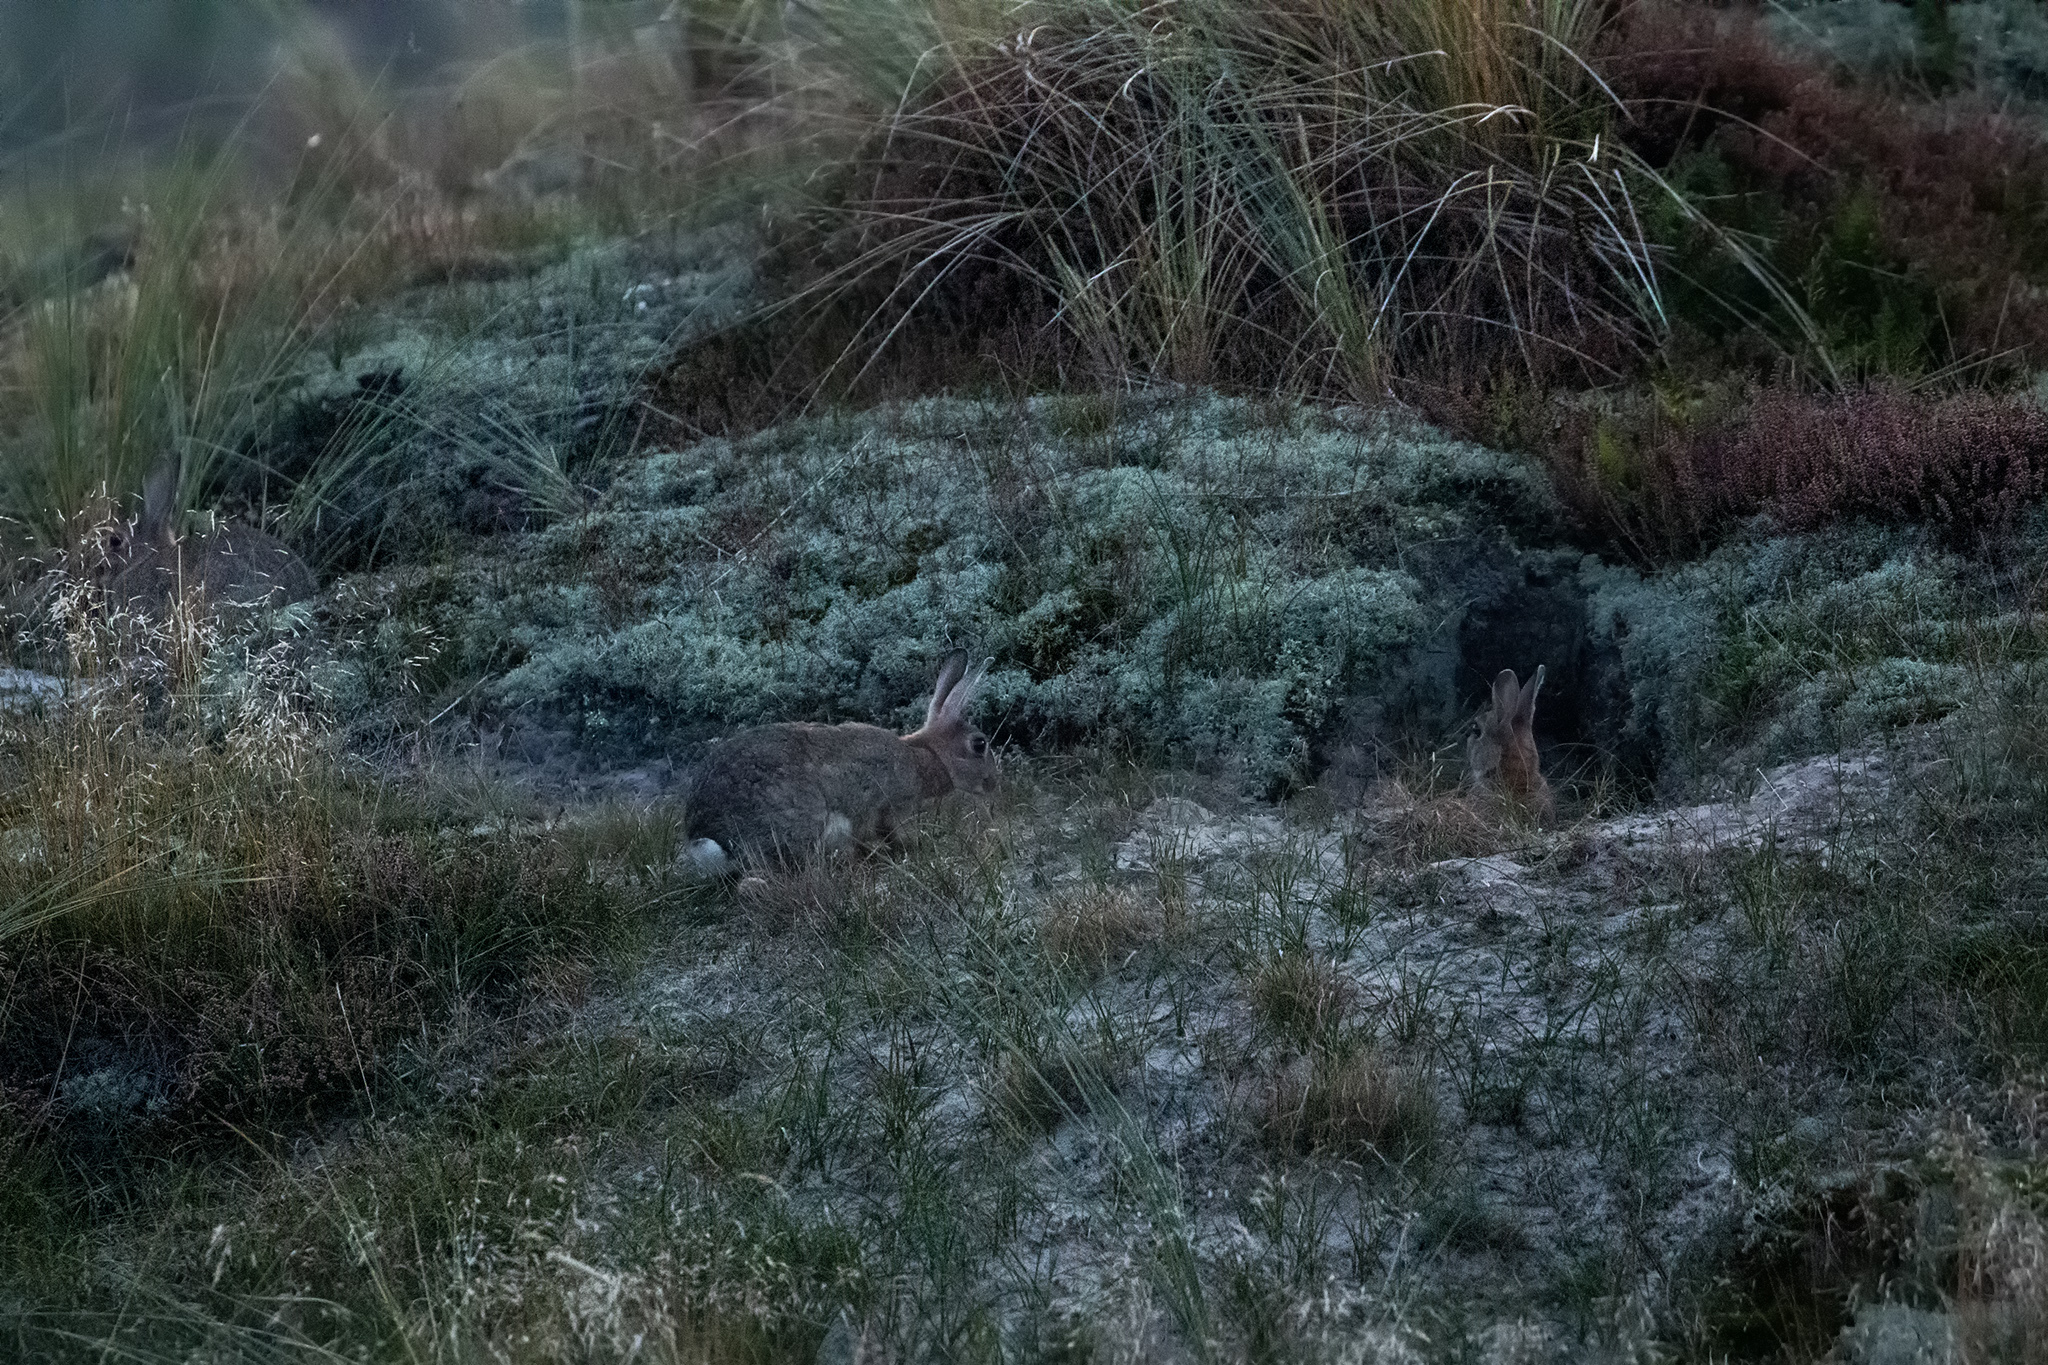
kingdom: Animalia
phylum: Chordata
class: Mammalia
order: Lagomorpha
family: Leporidae
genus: Oryctolagus
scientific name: Oryctolagus cuniculus
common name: European rabbit
